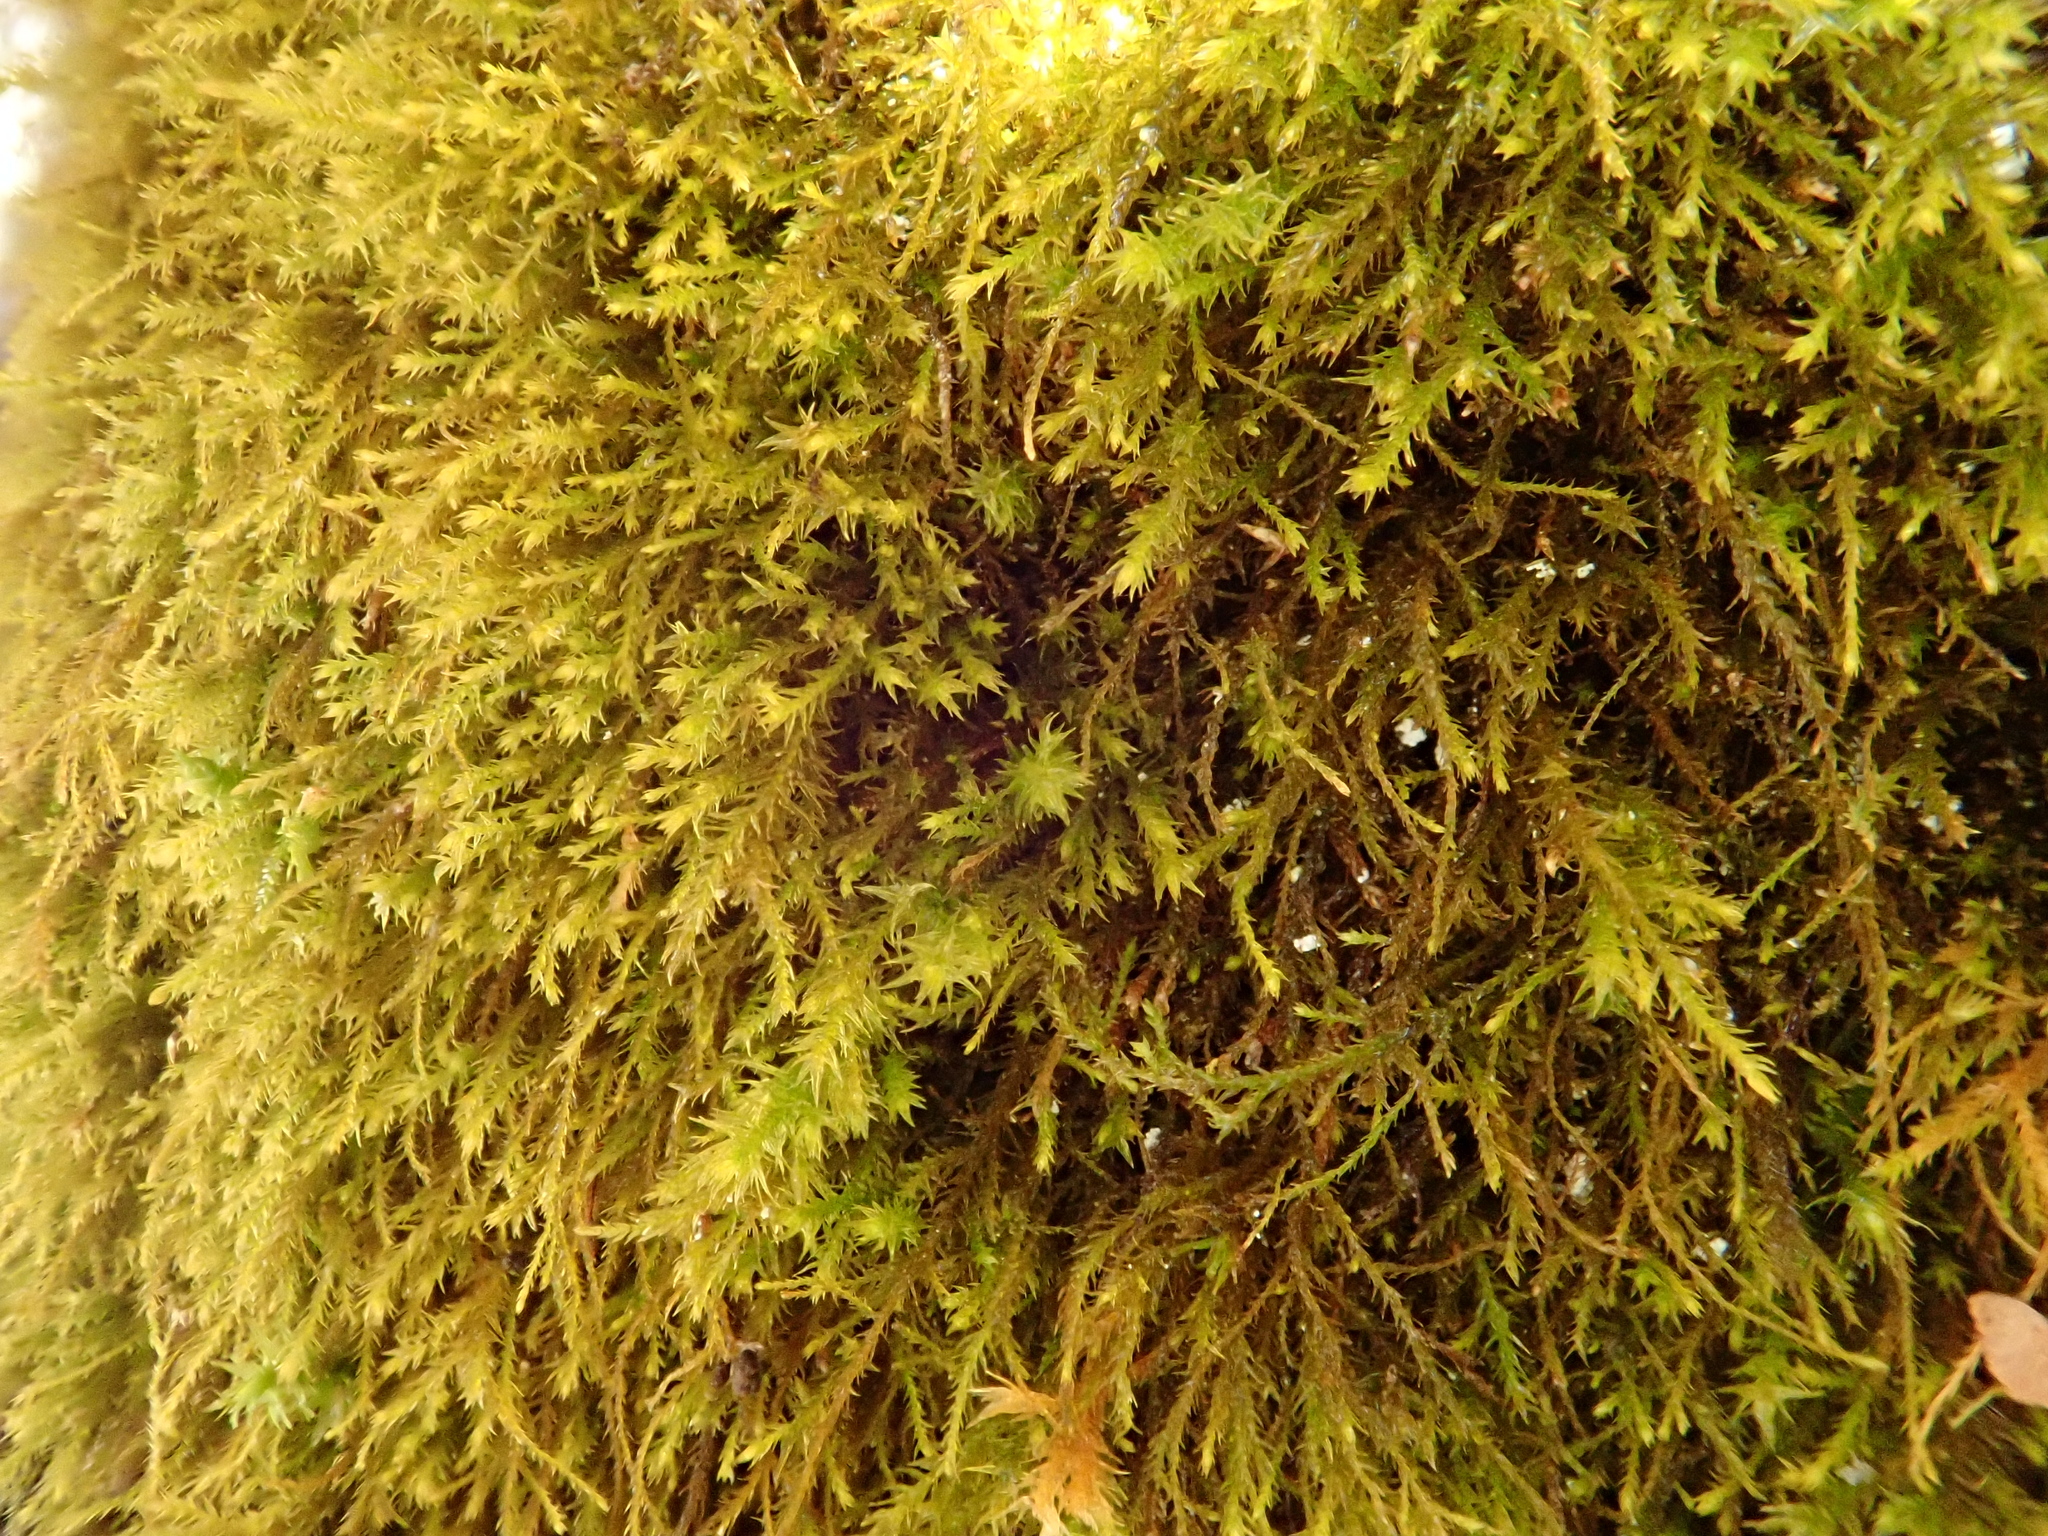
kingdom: Plantae
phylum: Bryophyta
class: Bryopsida
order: Hypnales
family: Anomodontaceae
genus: Anomodontella
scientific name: Anomodontella longifolia
